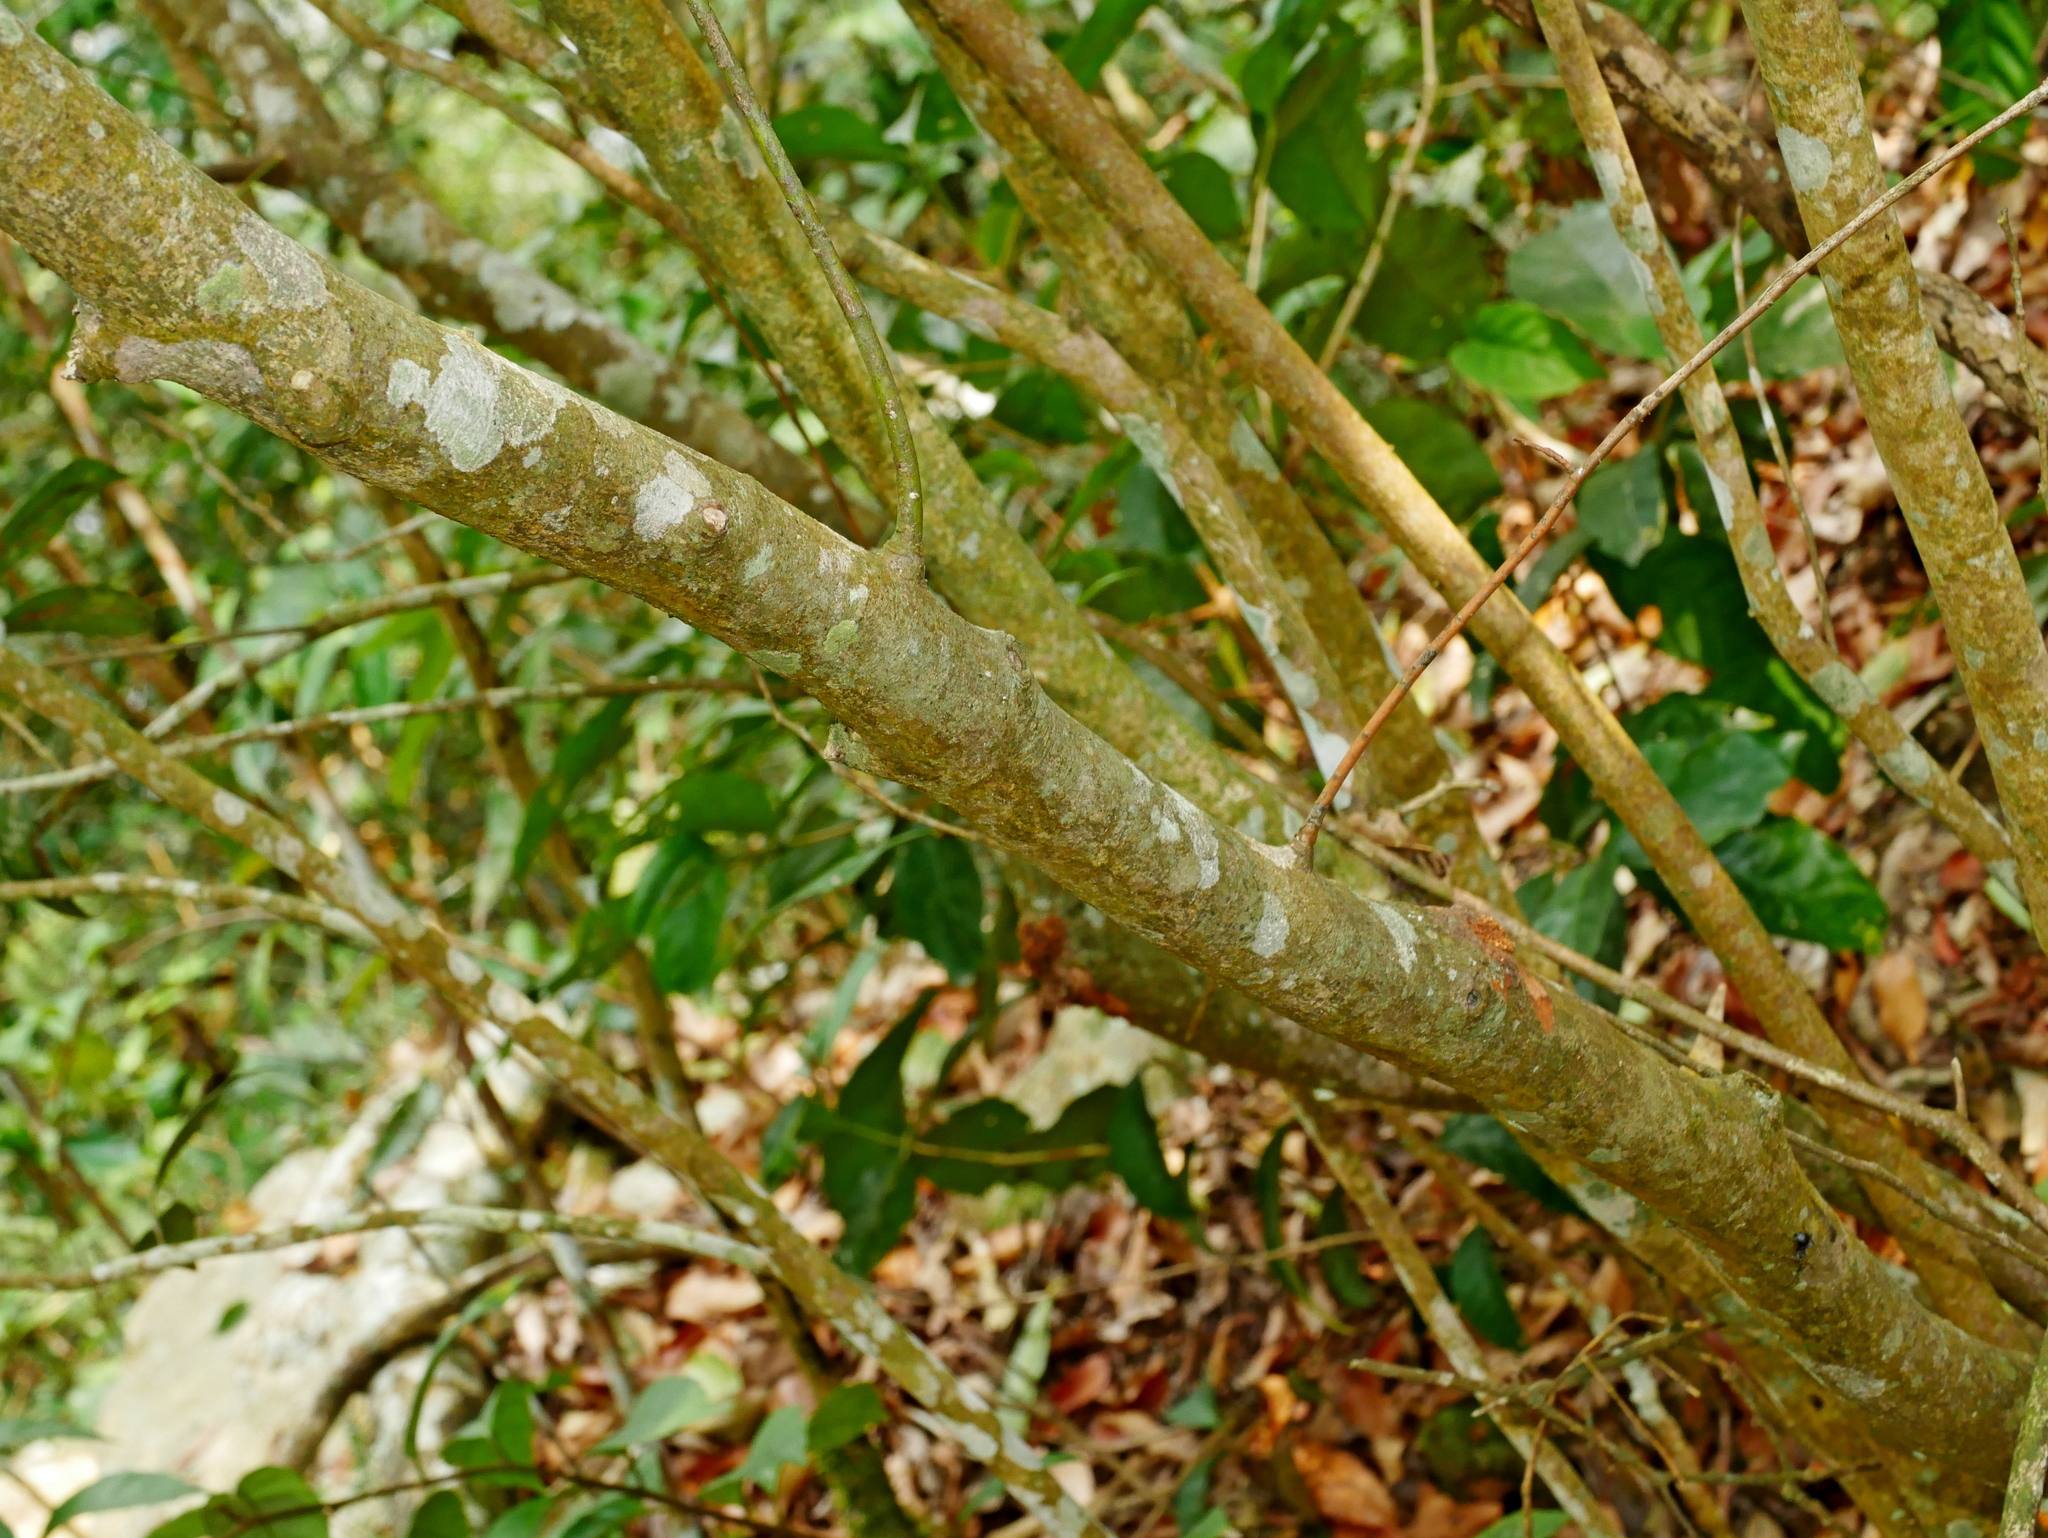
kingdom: Plantae
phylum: Tracheophyta
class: Magnoliopsida
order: Ericales
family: Theaceae
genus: Camellia
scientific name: Camellia japonica
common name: Camellia
